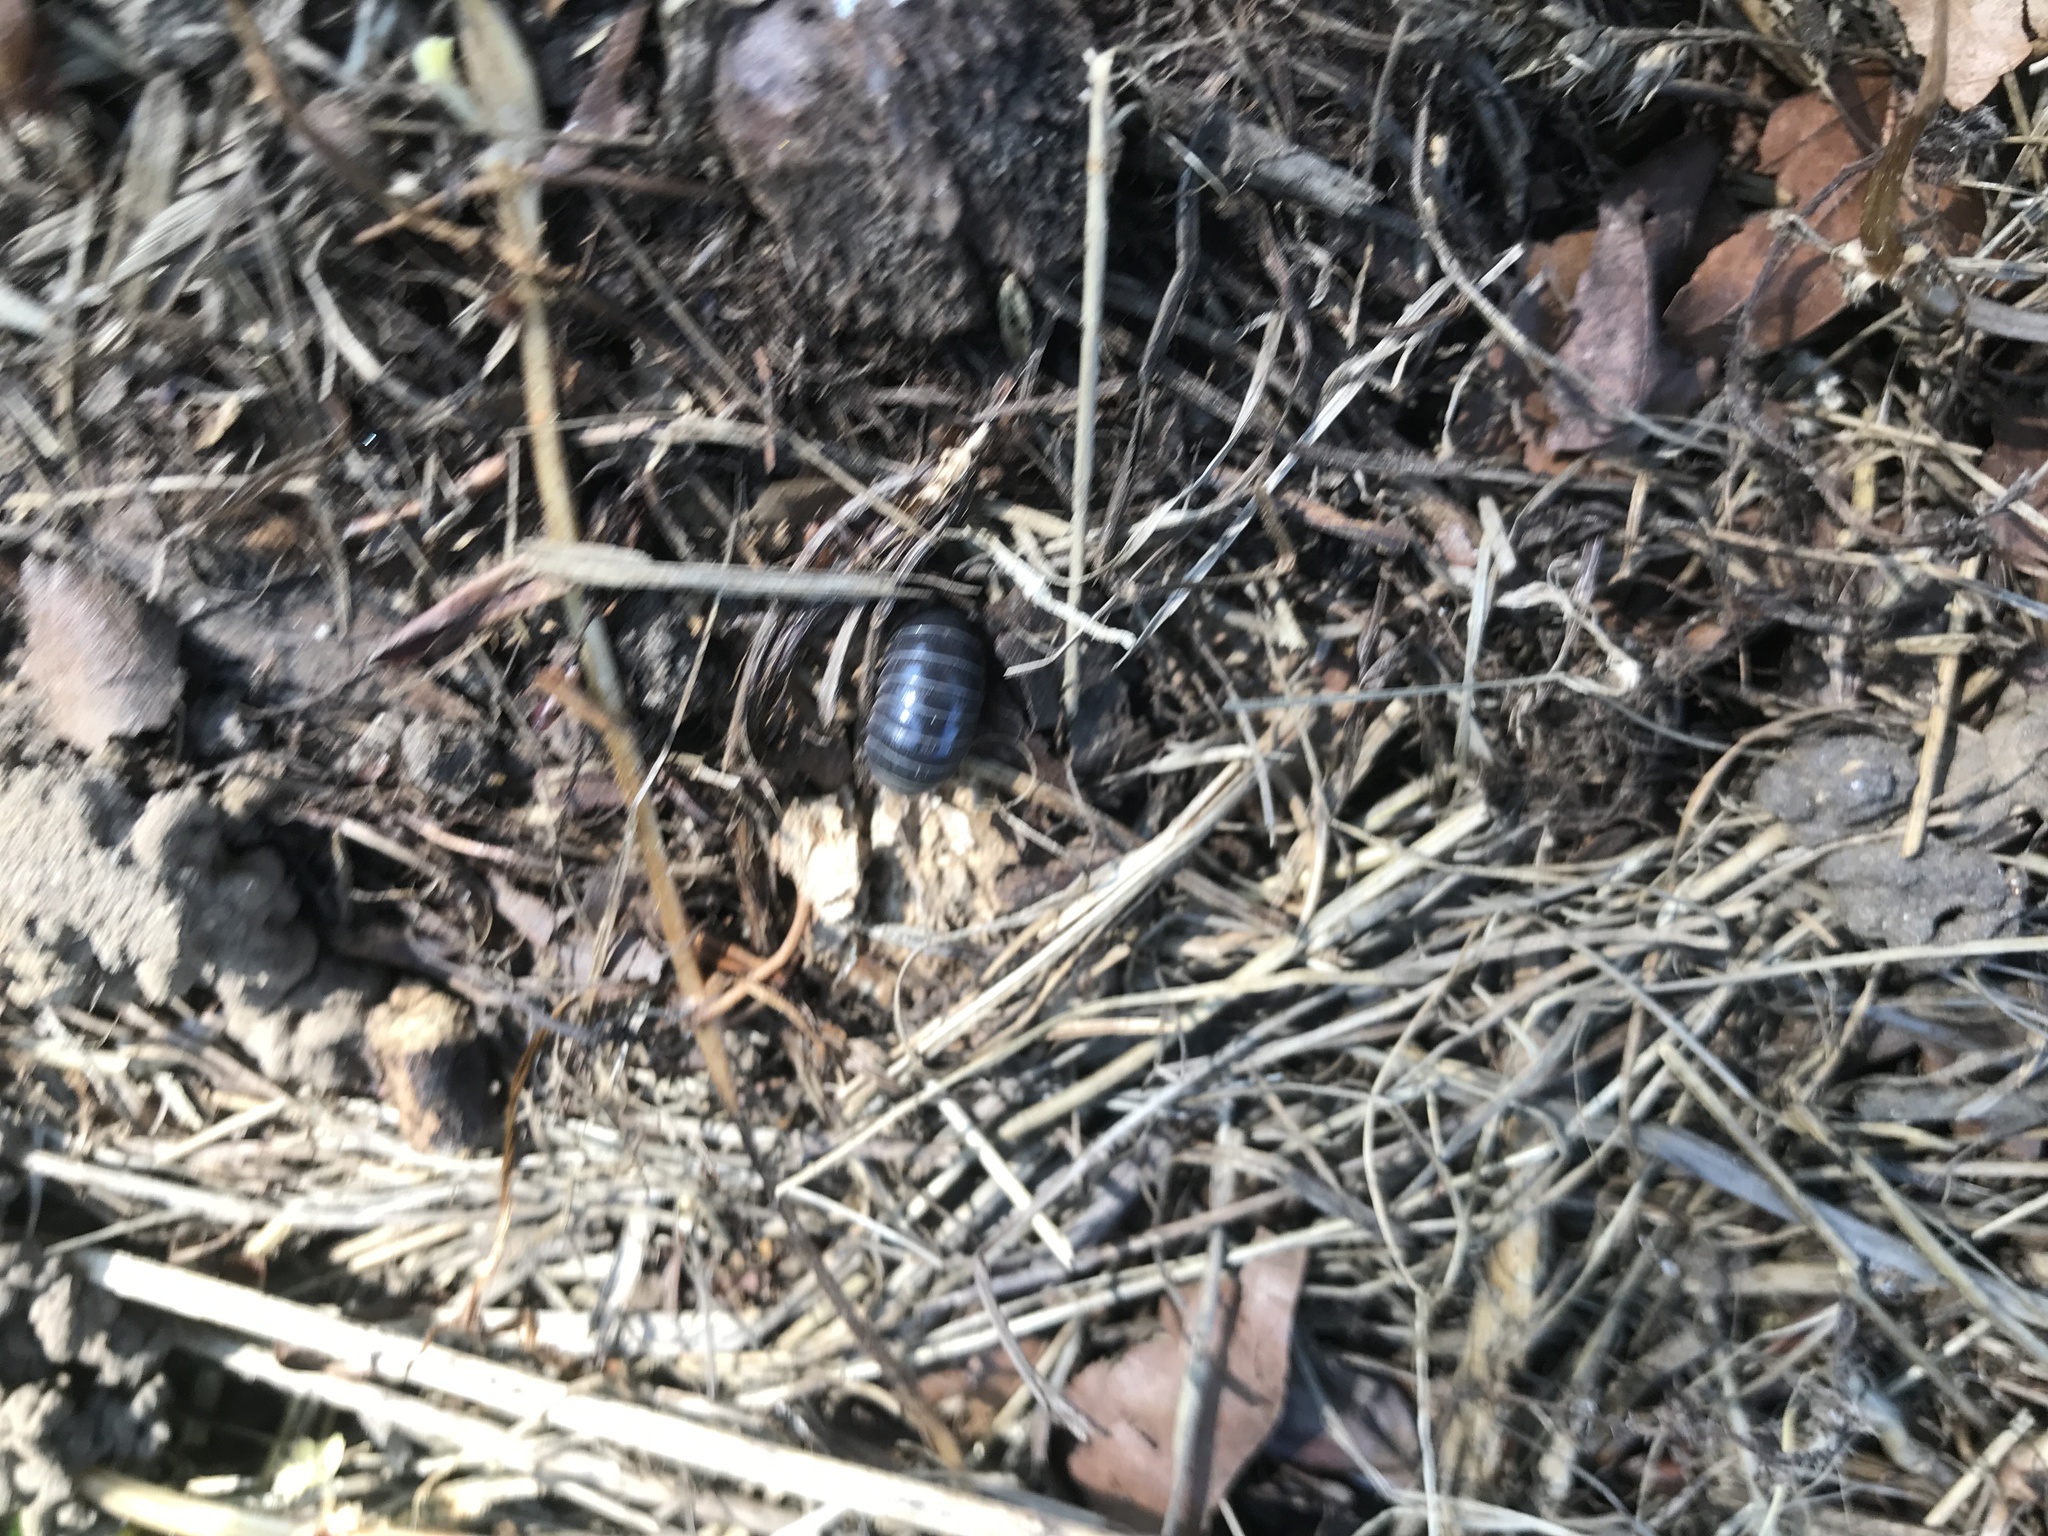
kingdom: Animalia
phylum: Arthropoda
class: Malacostraca
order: Isopoda
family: Armadillidiidae
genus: Armadillidium
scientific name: Armadillidium
